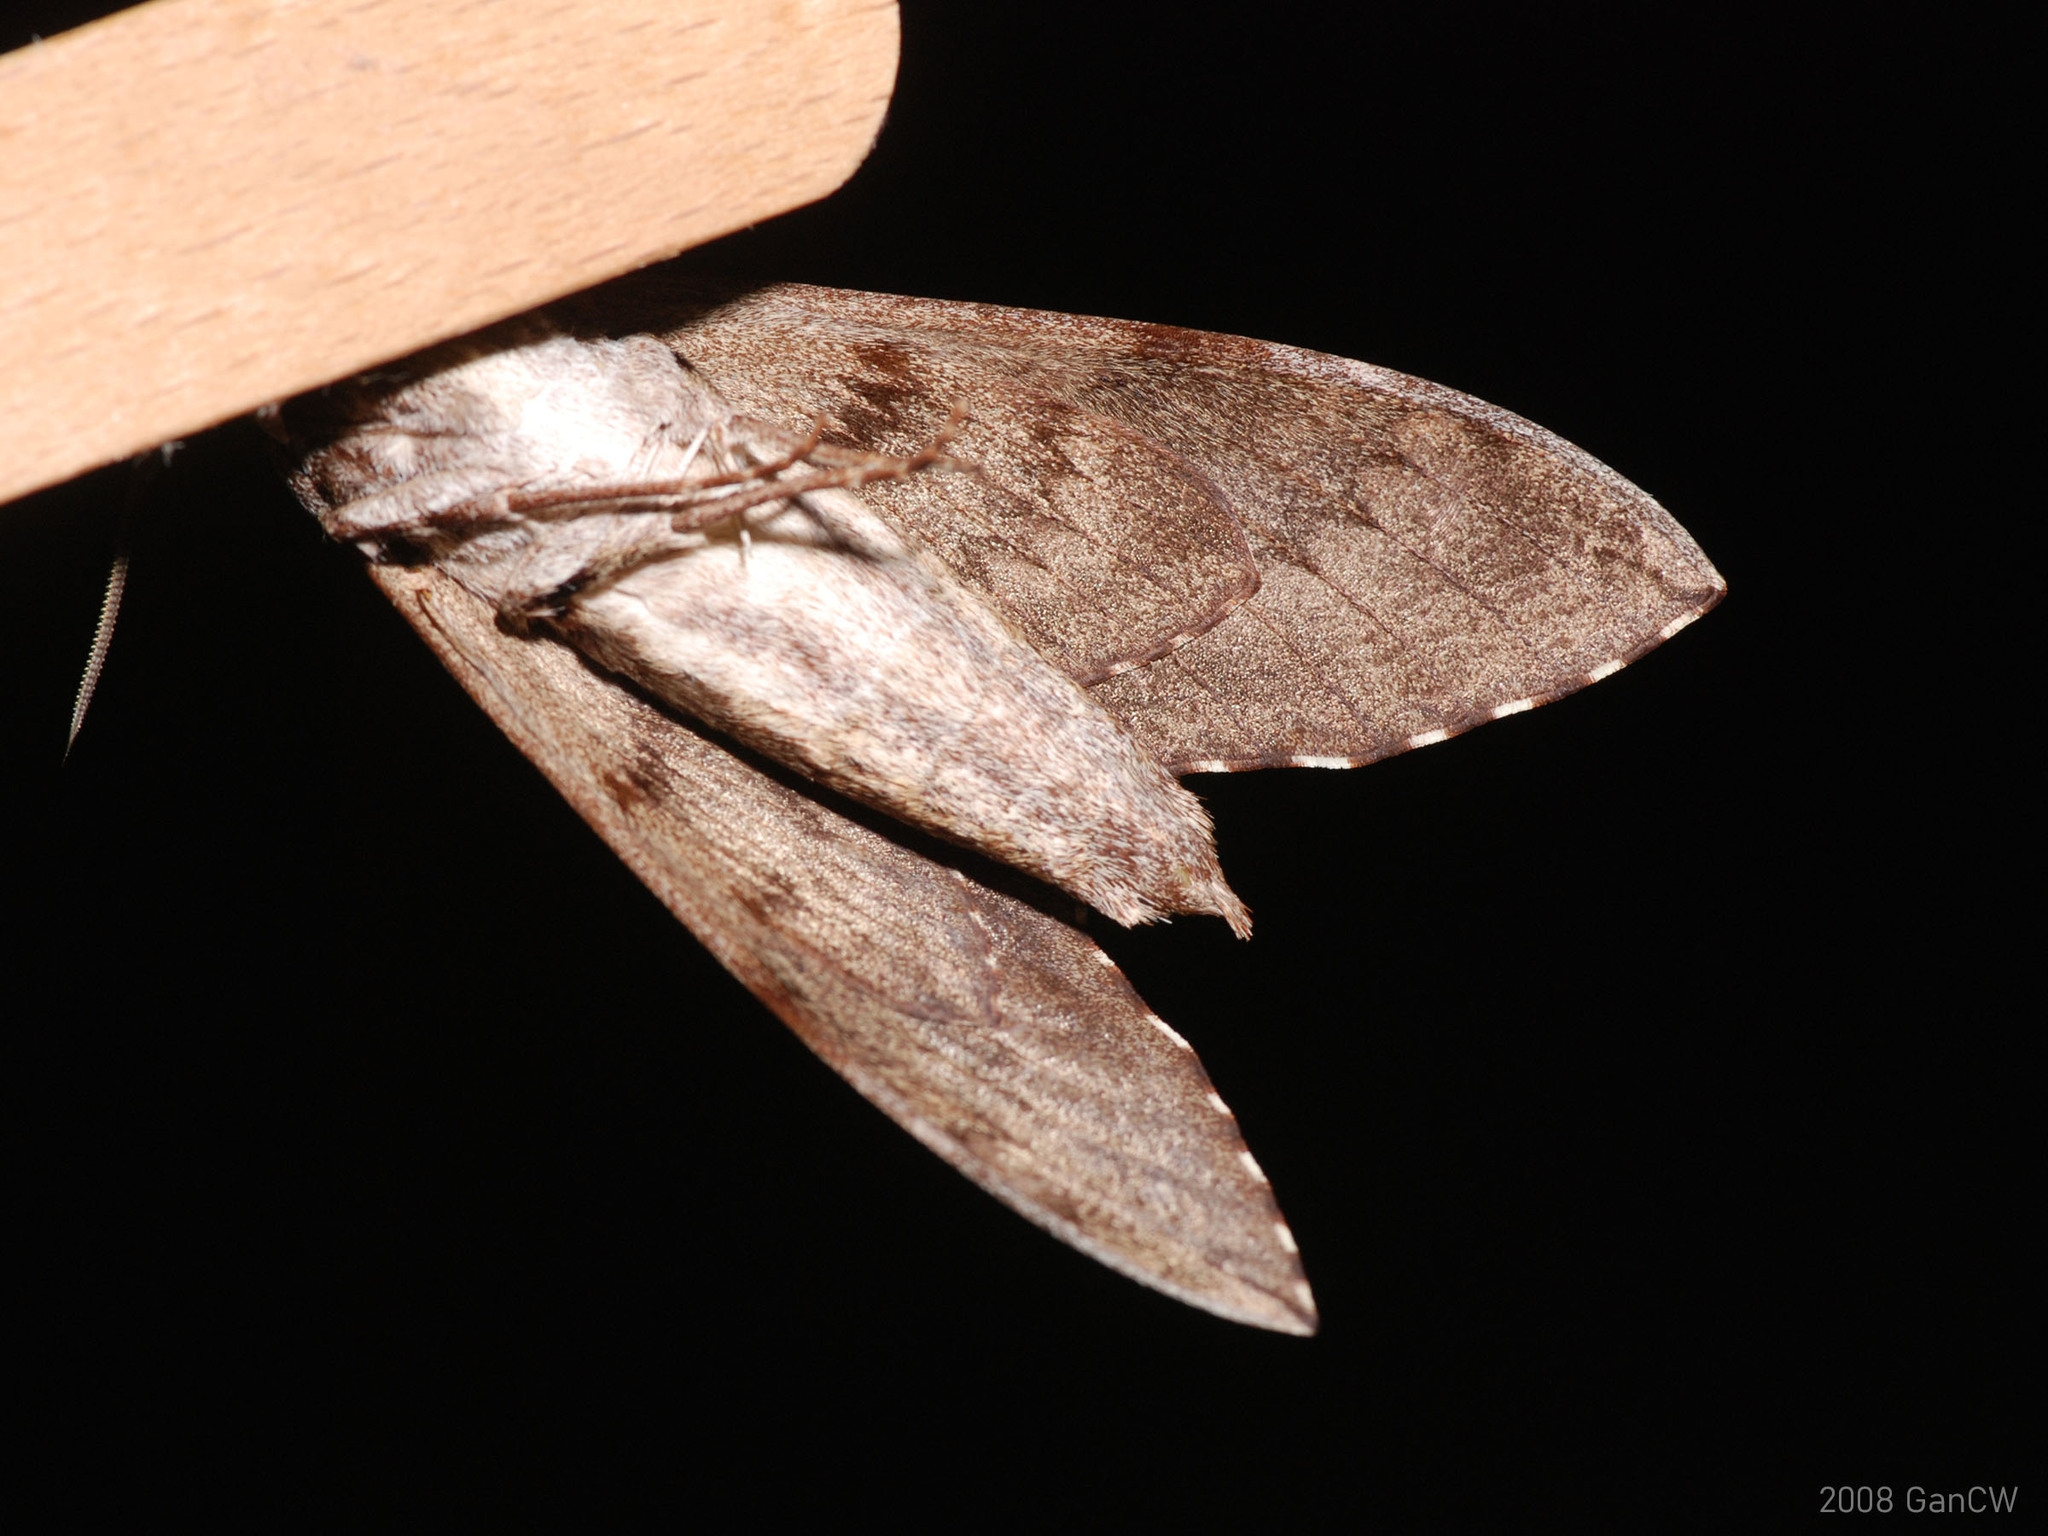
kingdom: Animalia
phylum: Arthropoda
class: Insecta
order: Lepidoptera
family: Sphingidae
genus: Psilogramma
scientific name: Psilogramma menephron
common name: Gray hawk moth
